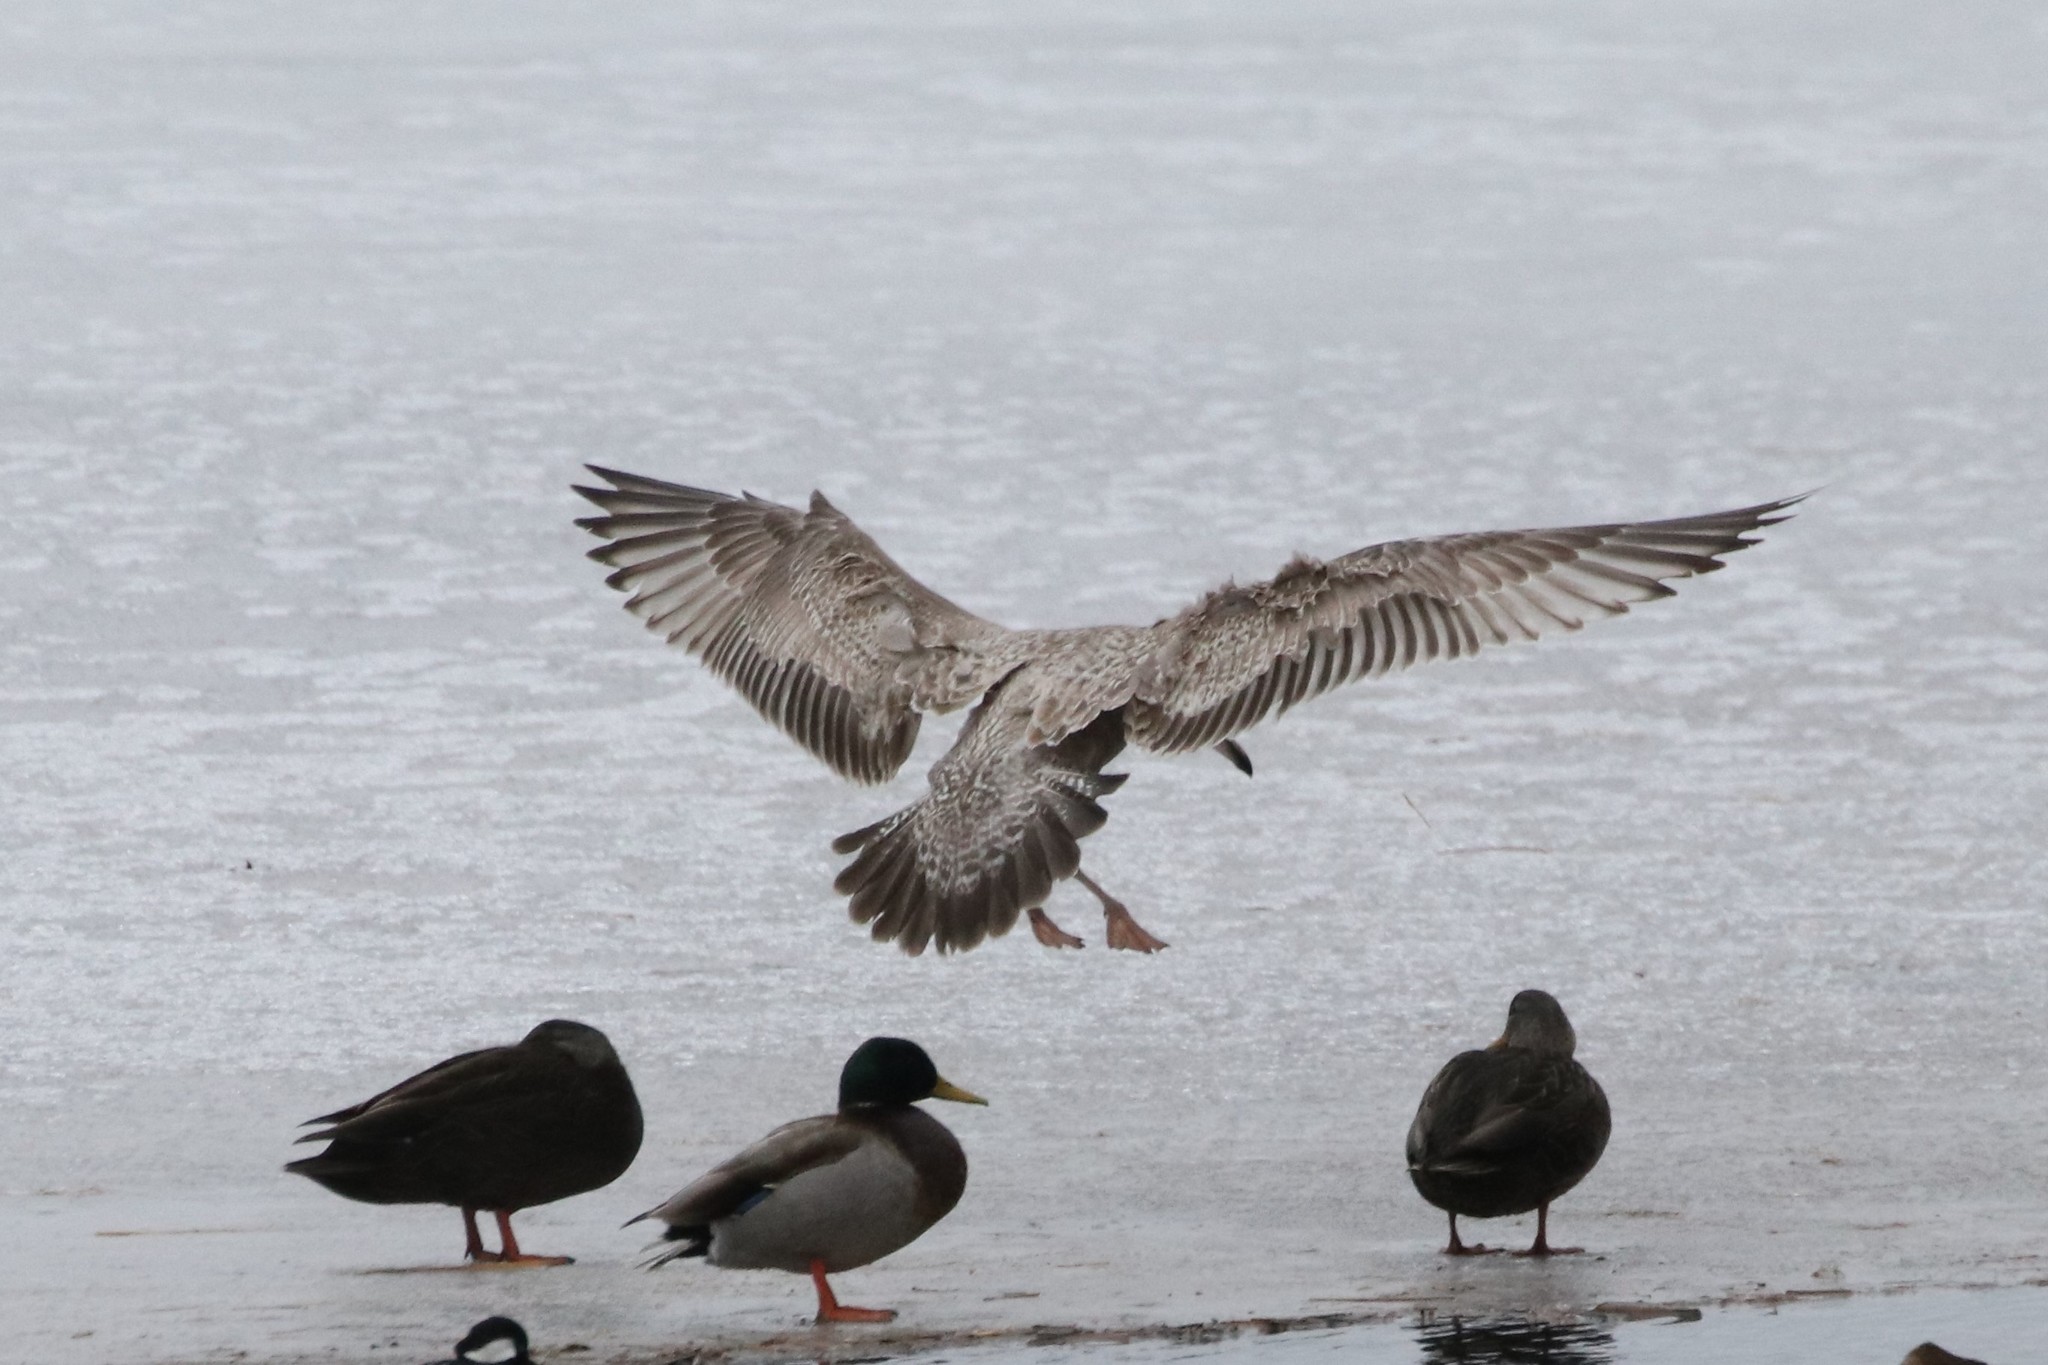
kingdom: Animalia
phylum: Chordata
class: Aves
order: Charadriiformes
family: Laridae
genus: Larus
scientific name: Larus argentatus
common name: Herring gull
